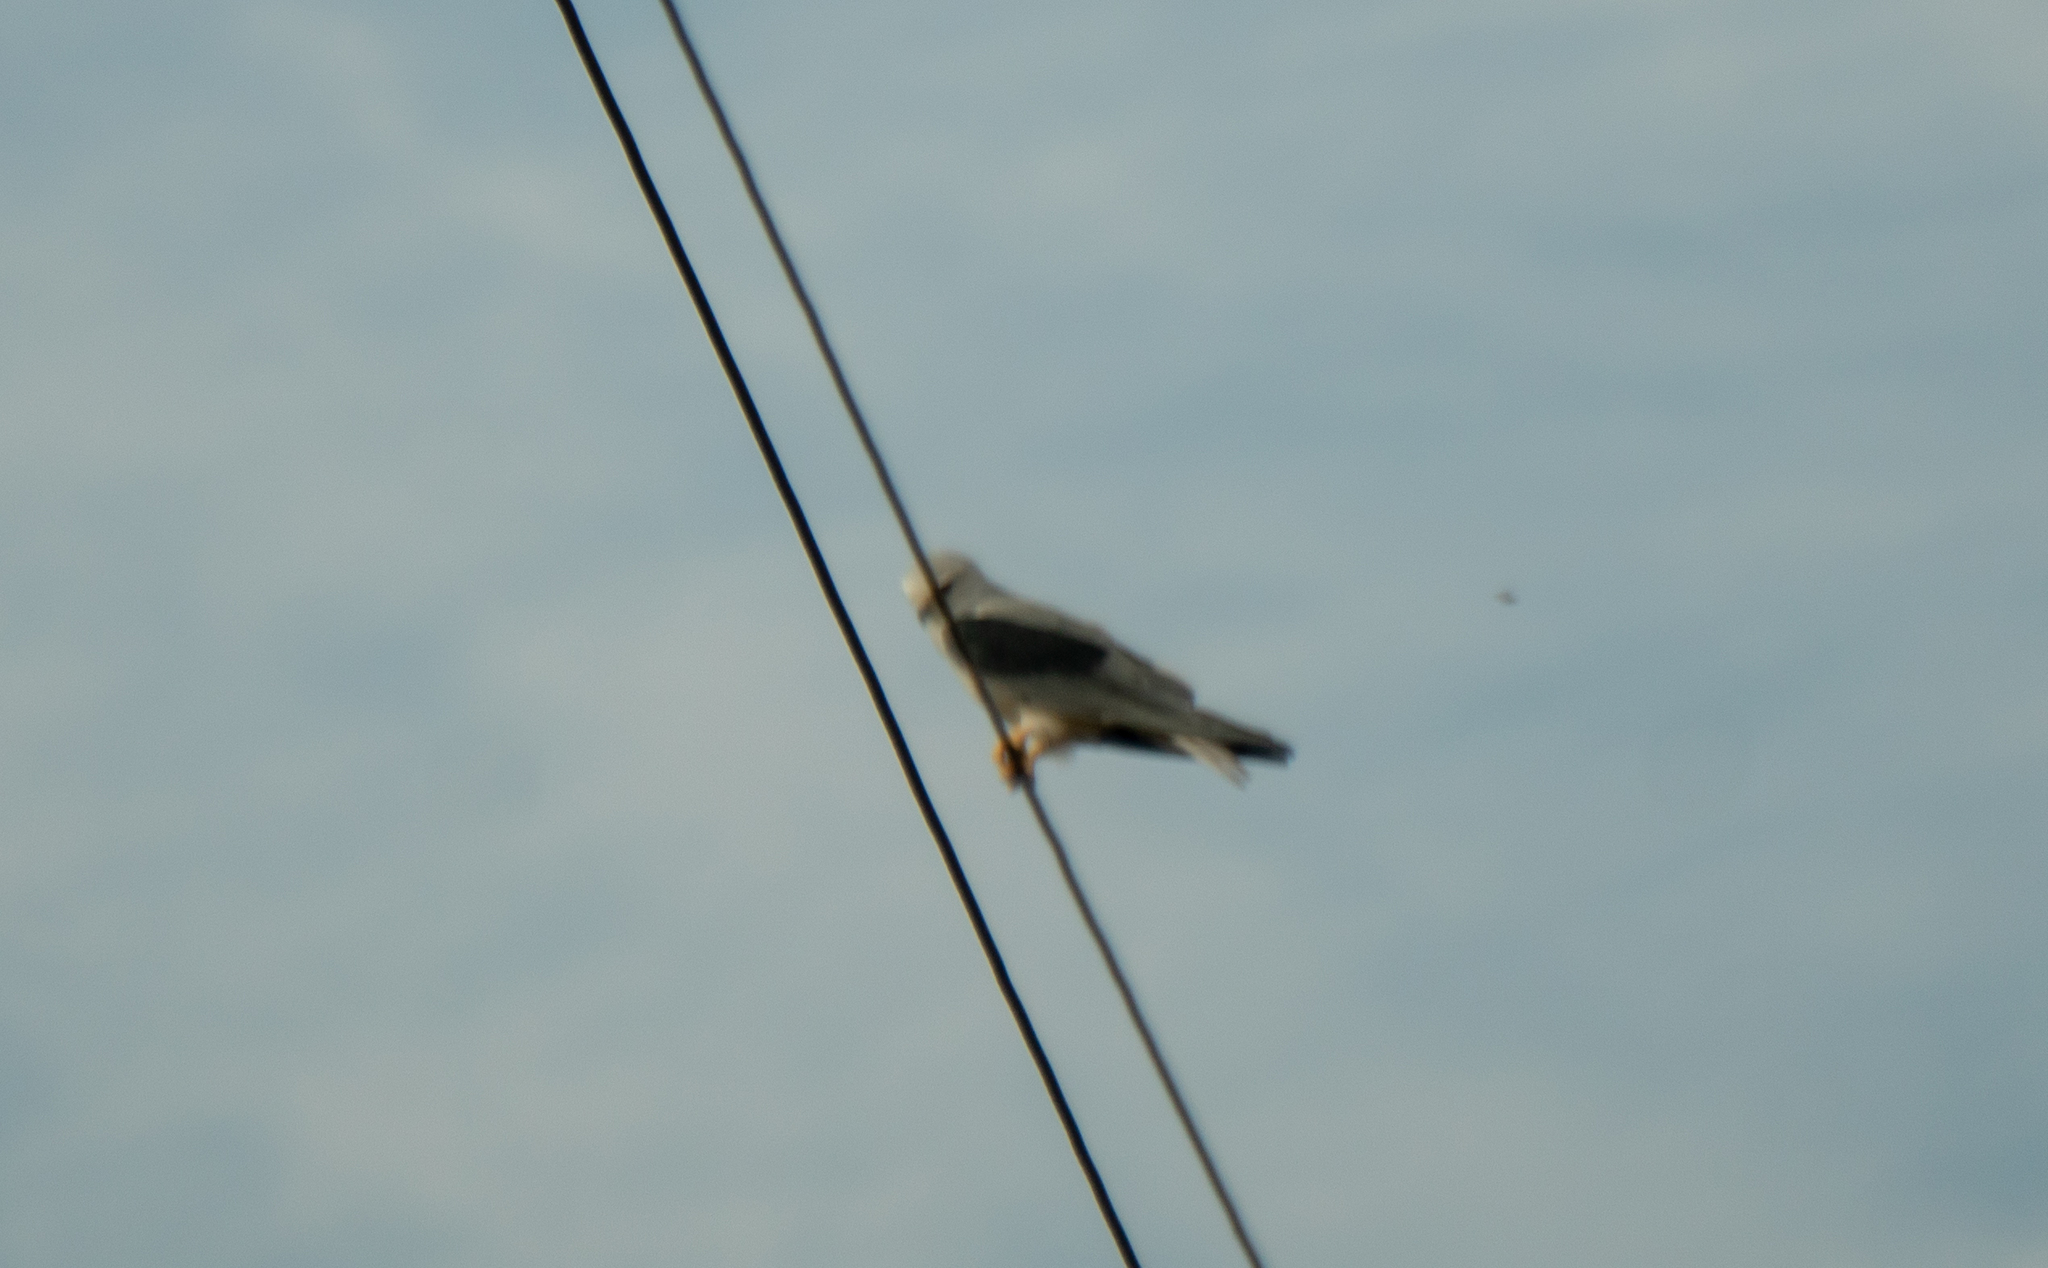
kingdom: Animalia
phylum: Chordata
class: Aves
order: Accipitriformes
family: Accipitridae
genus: Elanus
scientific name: Elanus caeruleus
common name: Black-winged kite
